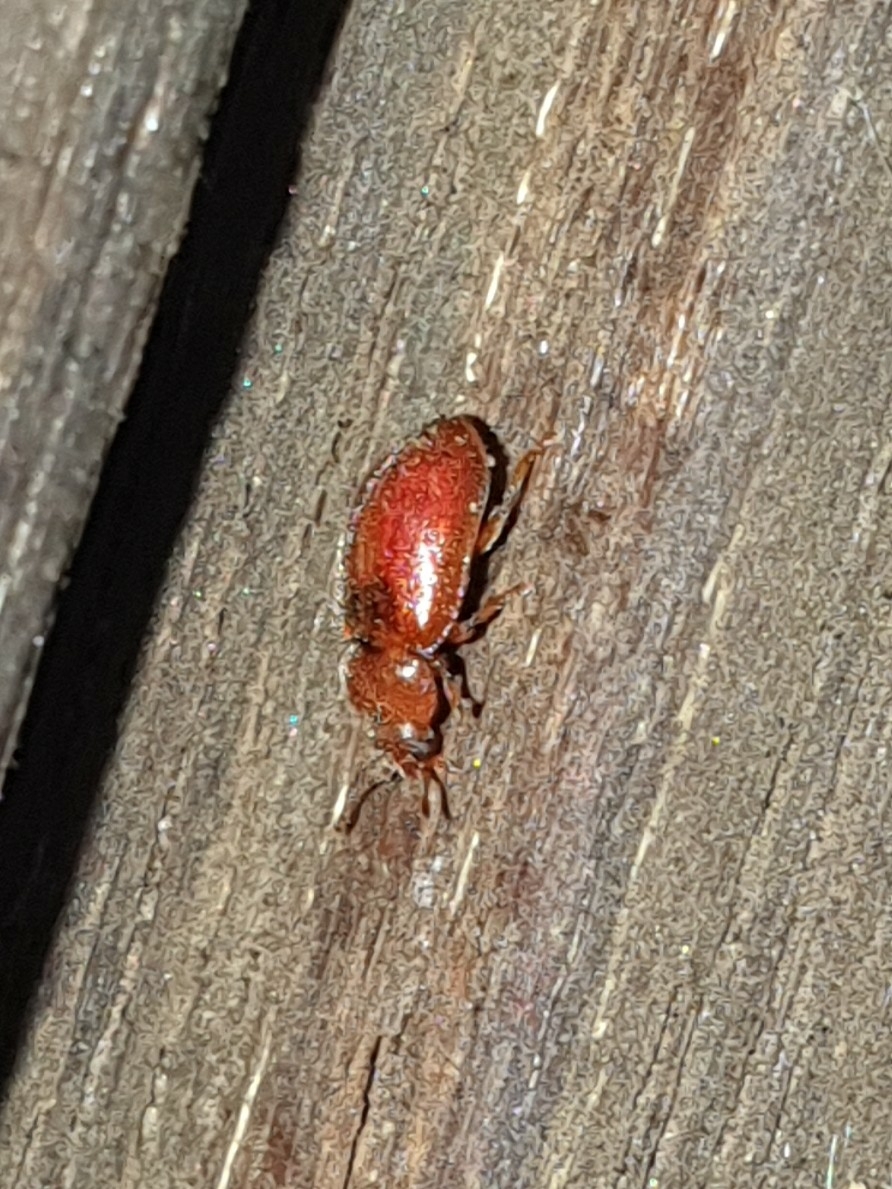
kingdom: Animalia
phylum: Arthropoda
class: Insecta
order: Coleoptera
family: Coccinellidae
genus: Coccidula
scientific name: Coccidula rufa
